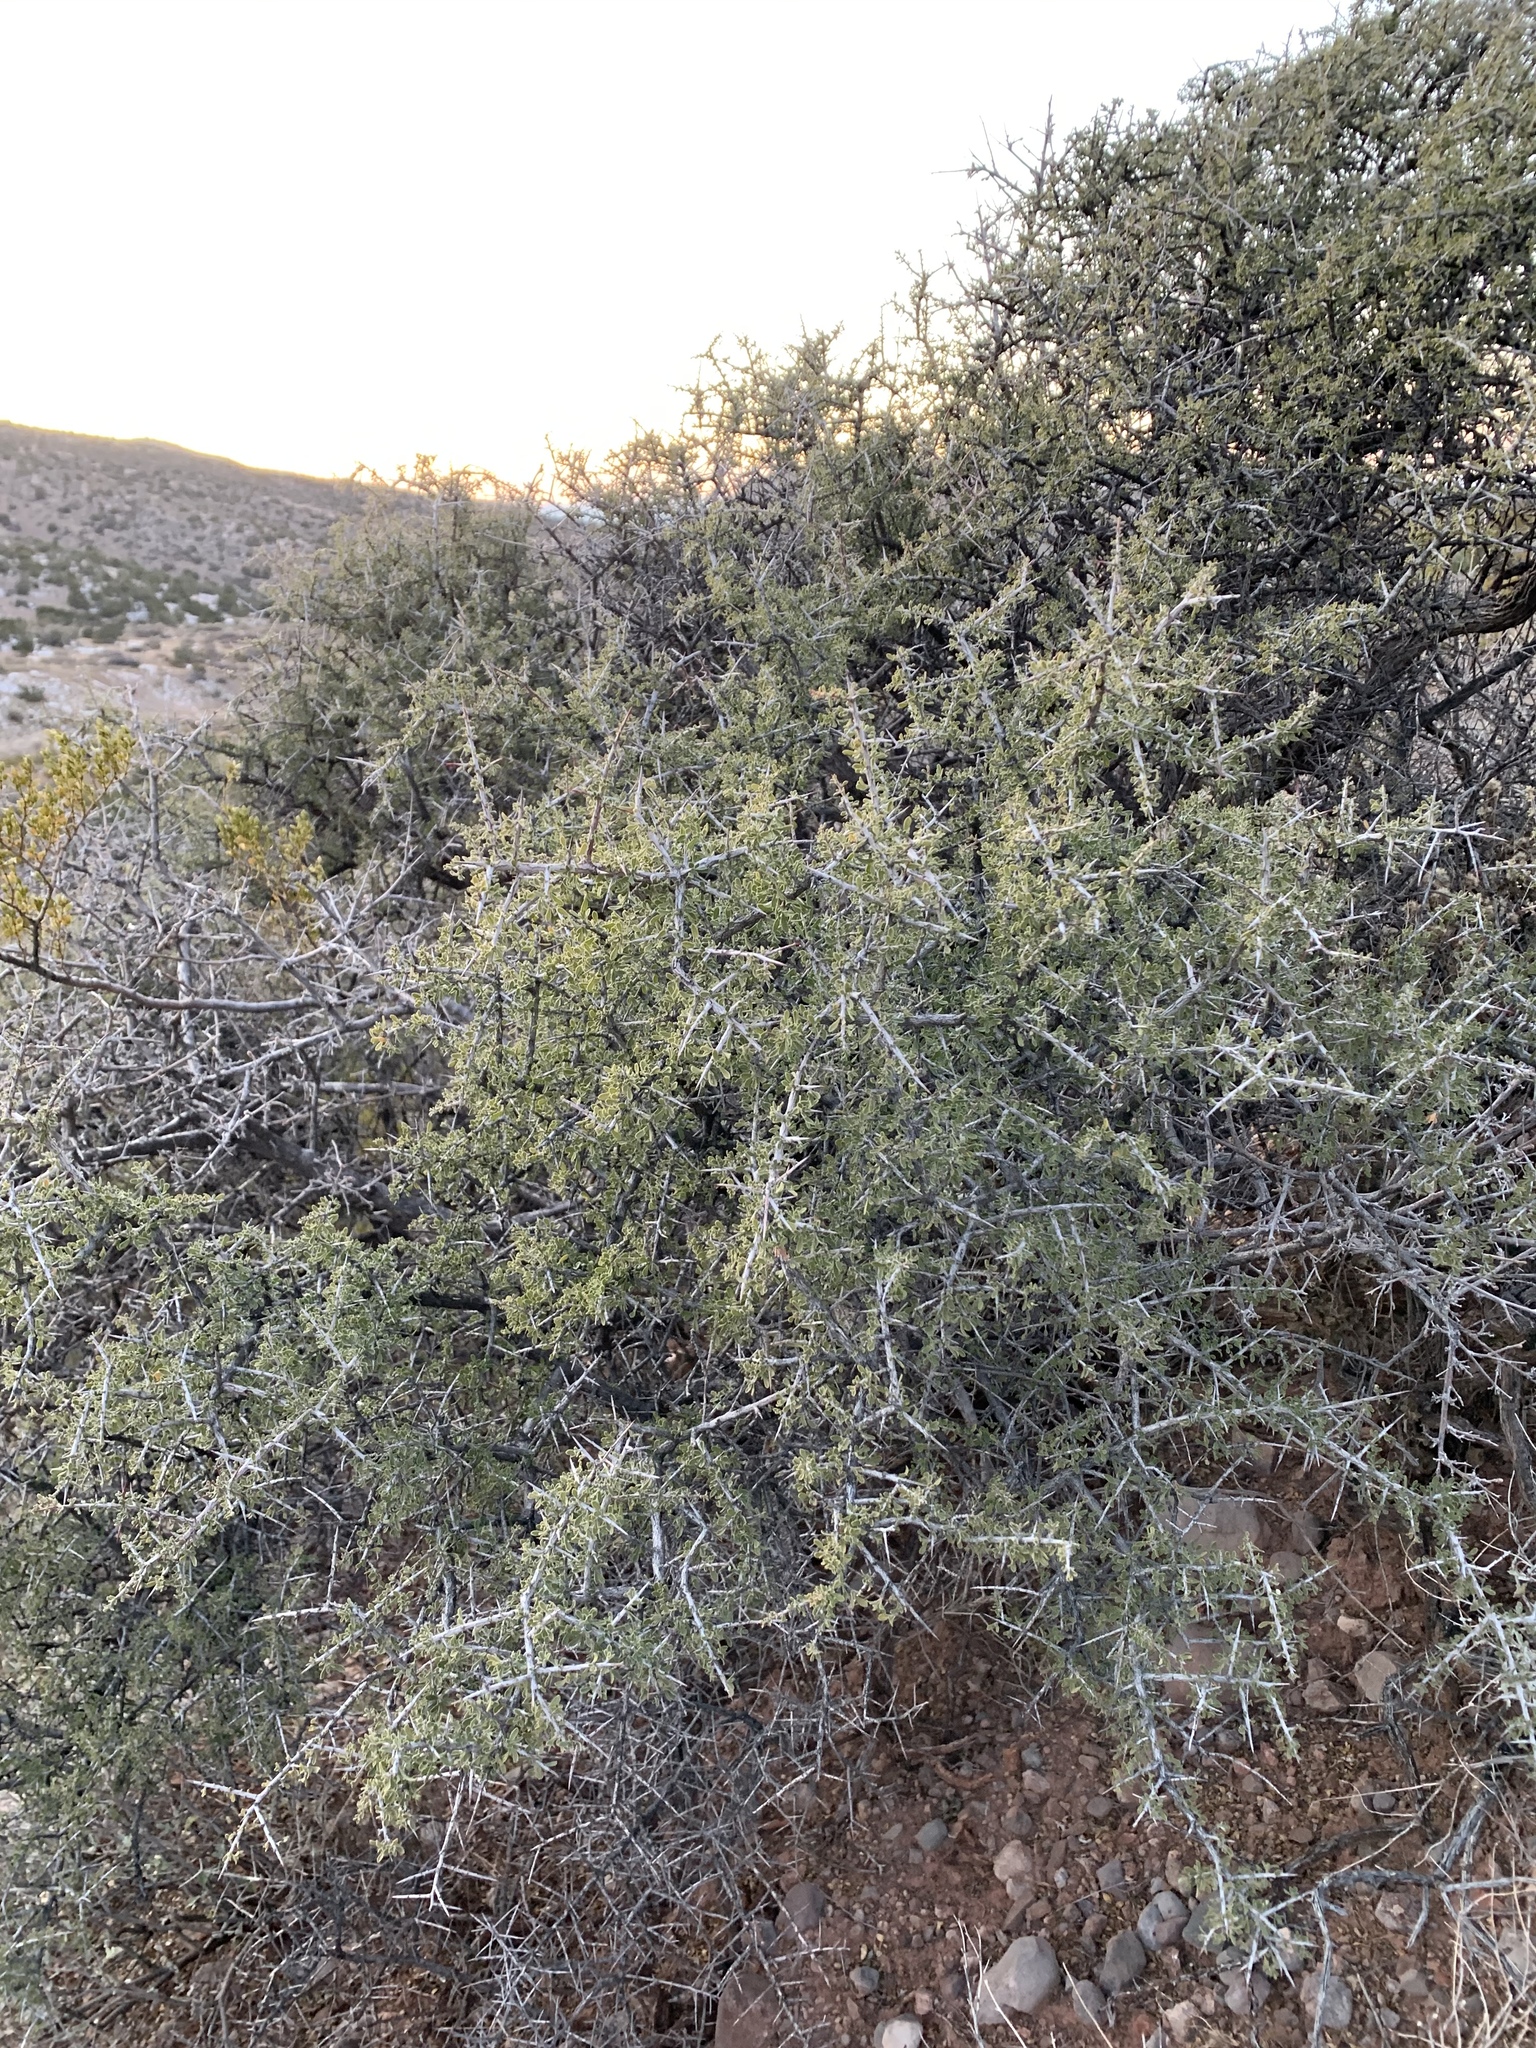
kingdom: Plantae
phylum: Tracheophyta
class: Magnoliopsida
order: Rosales
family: Rhamnaceae
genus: Condalia
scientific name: Condalia warnockii
